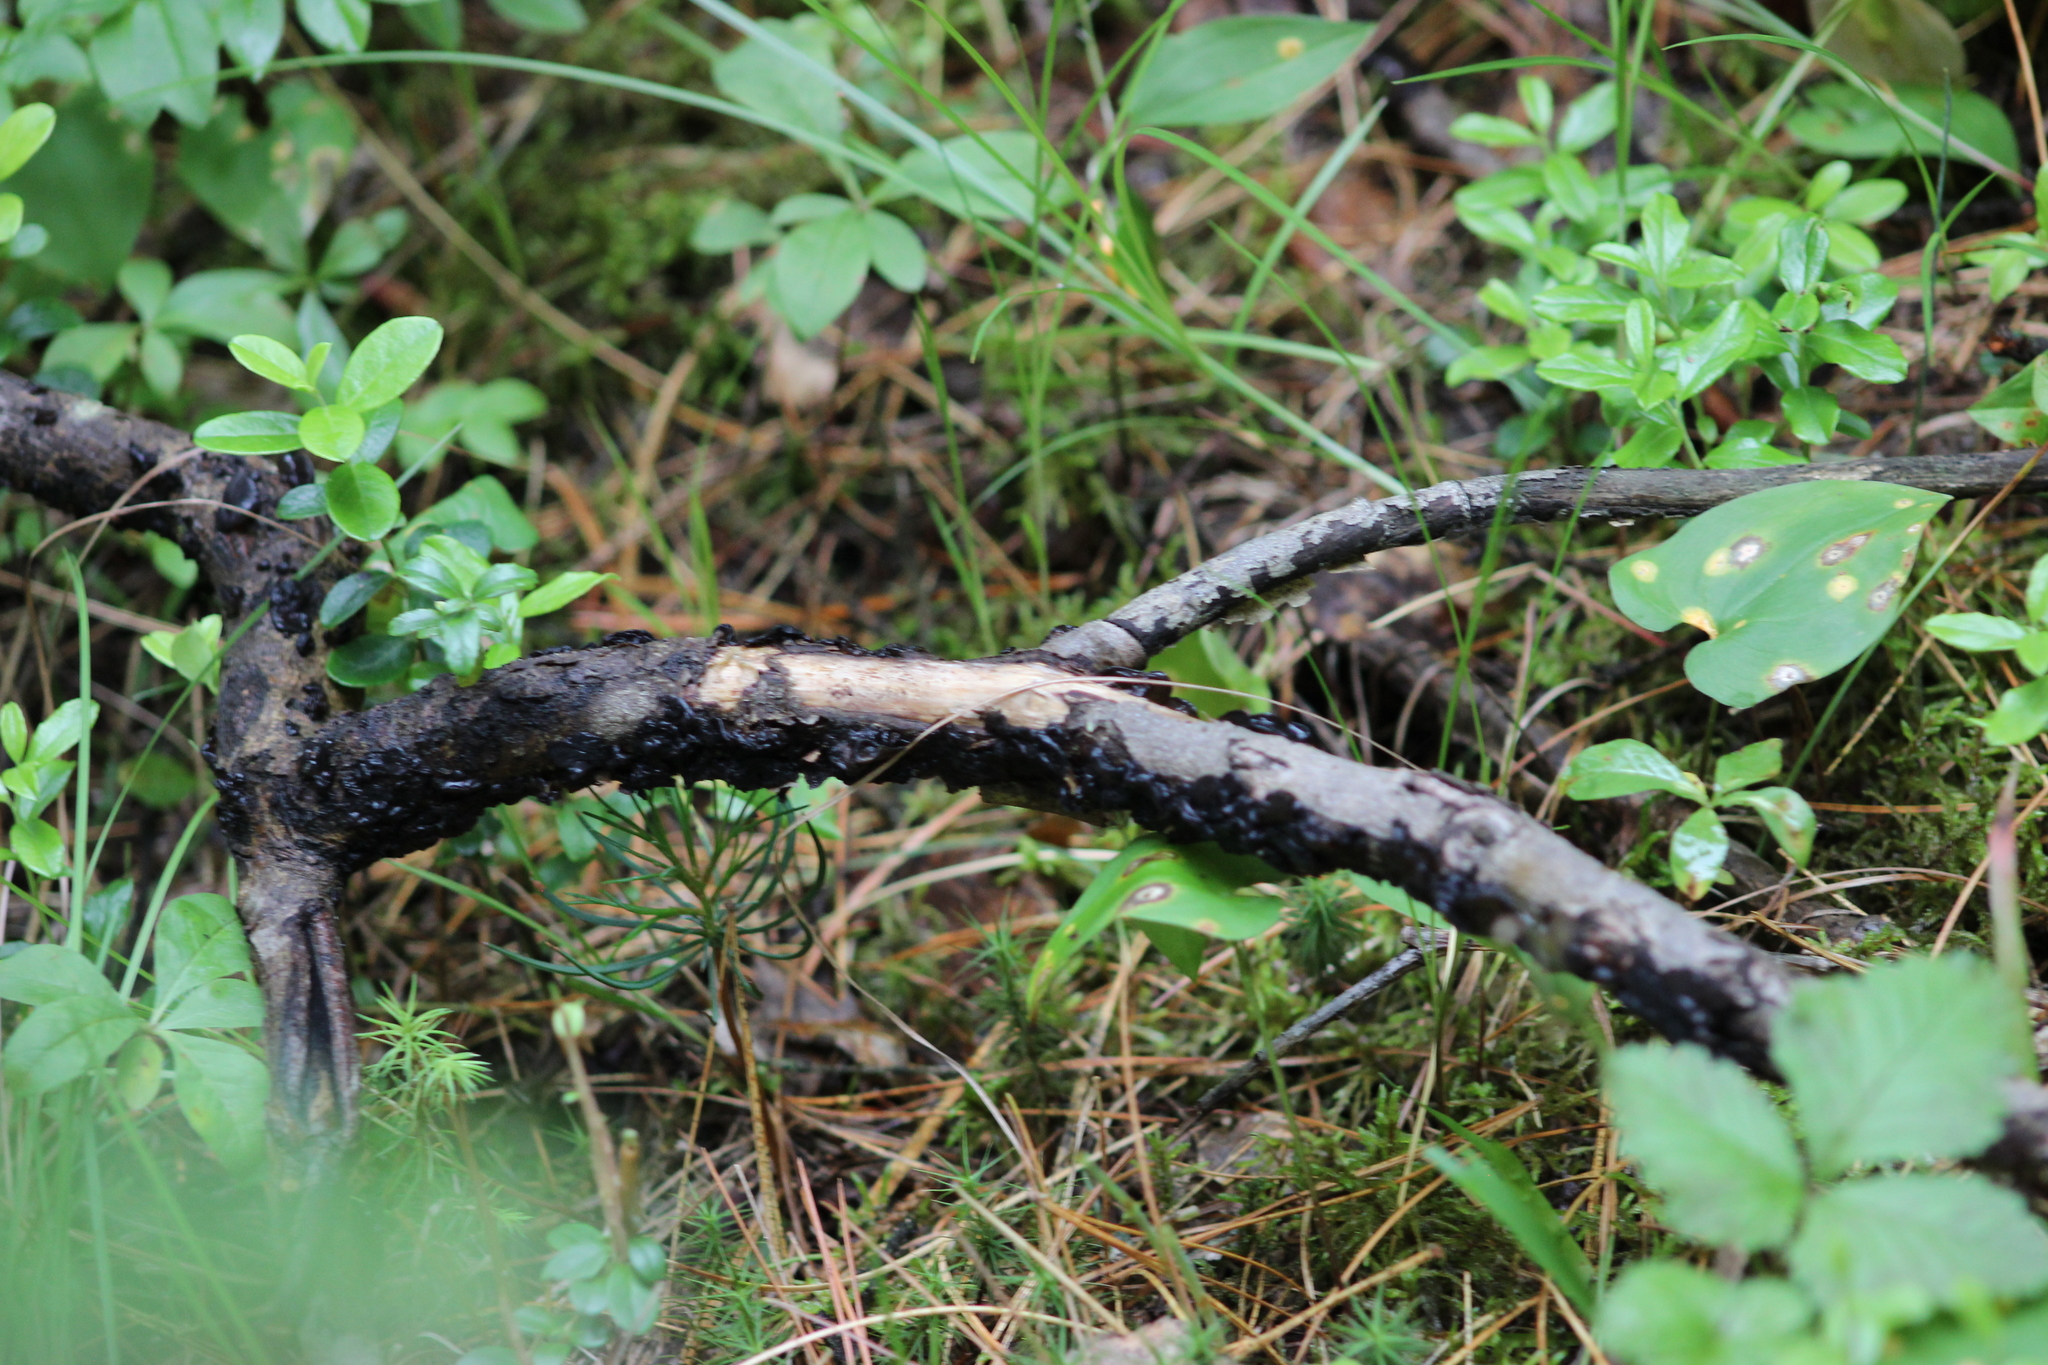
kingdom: Fungi
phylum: Basidiomycota
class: Agaricomycetes
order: Auriculariales
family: Auriculariaceae
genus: Exidia
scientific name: Exidia glandulosa
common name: Witches' butter
